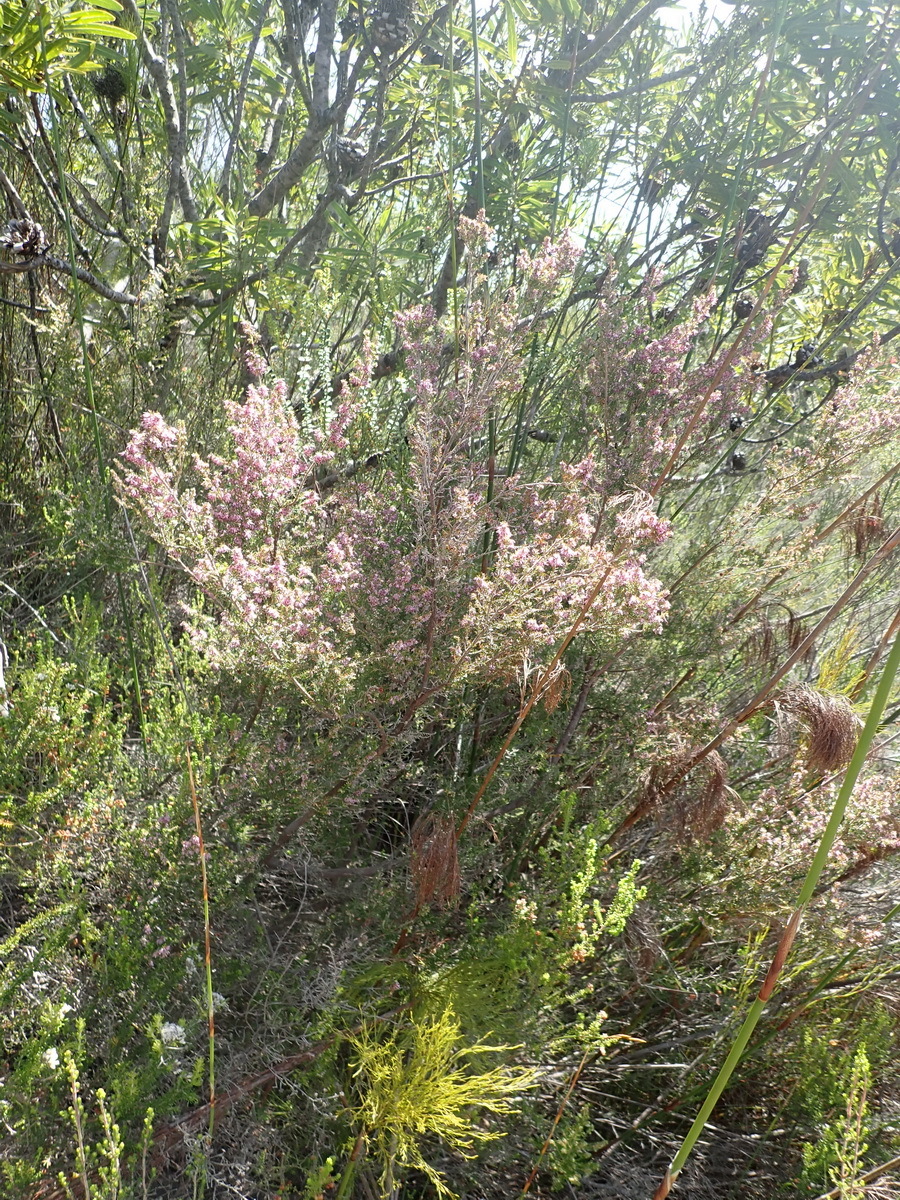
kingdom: Plantae
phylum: Tracheophyta
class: Magnoliopsida
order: Ericales
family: Ericaceae
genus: Erica
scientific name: Erica uberiflora
